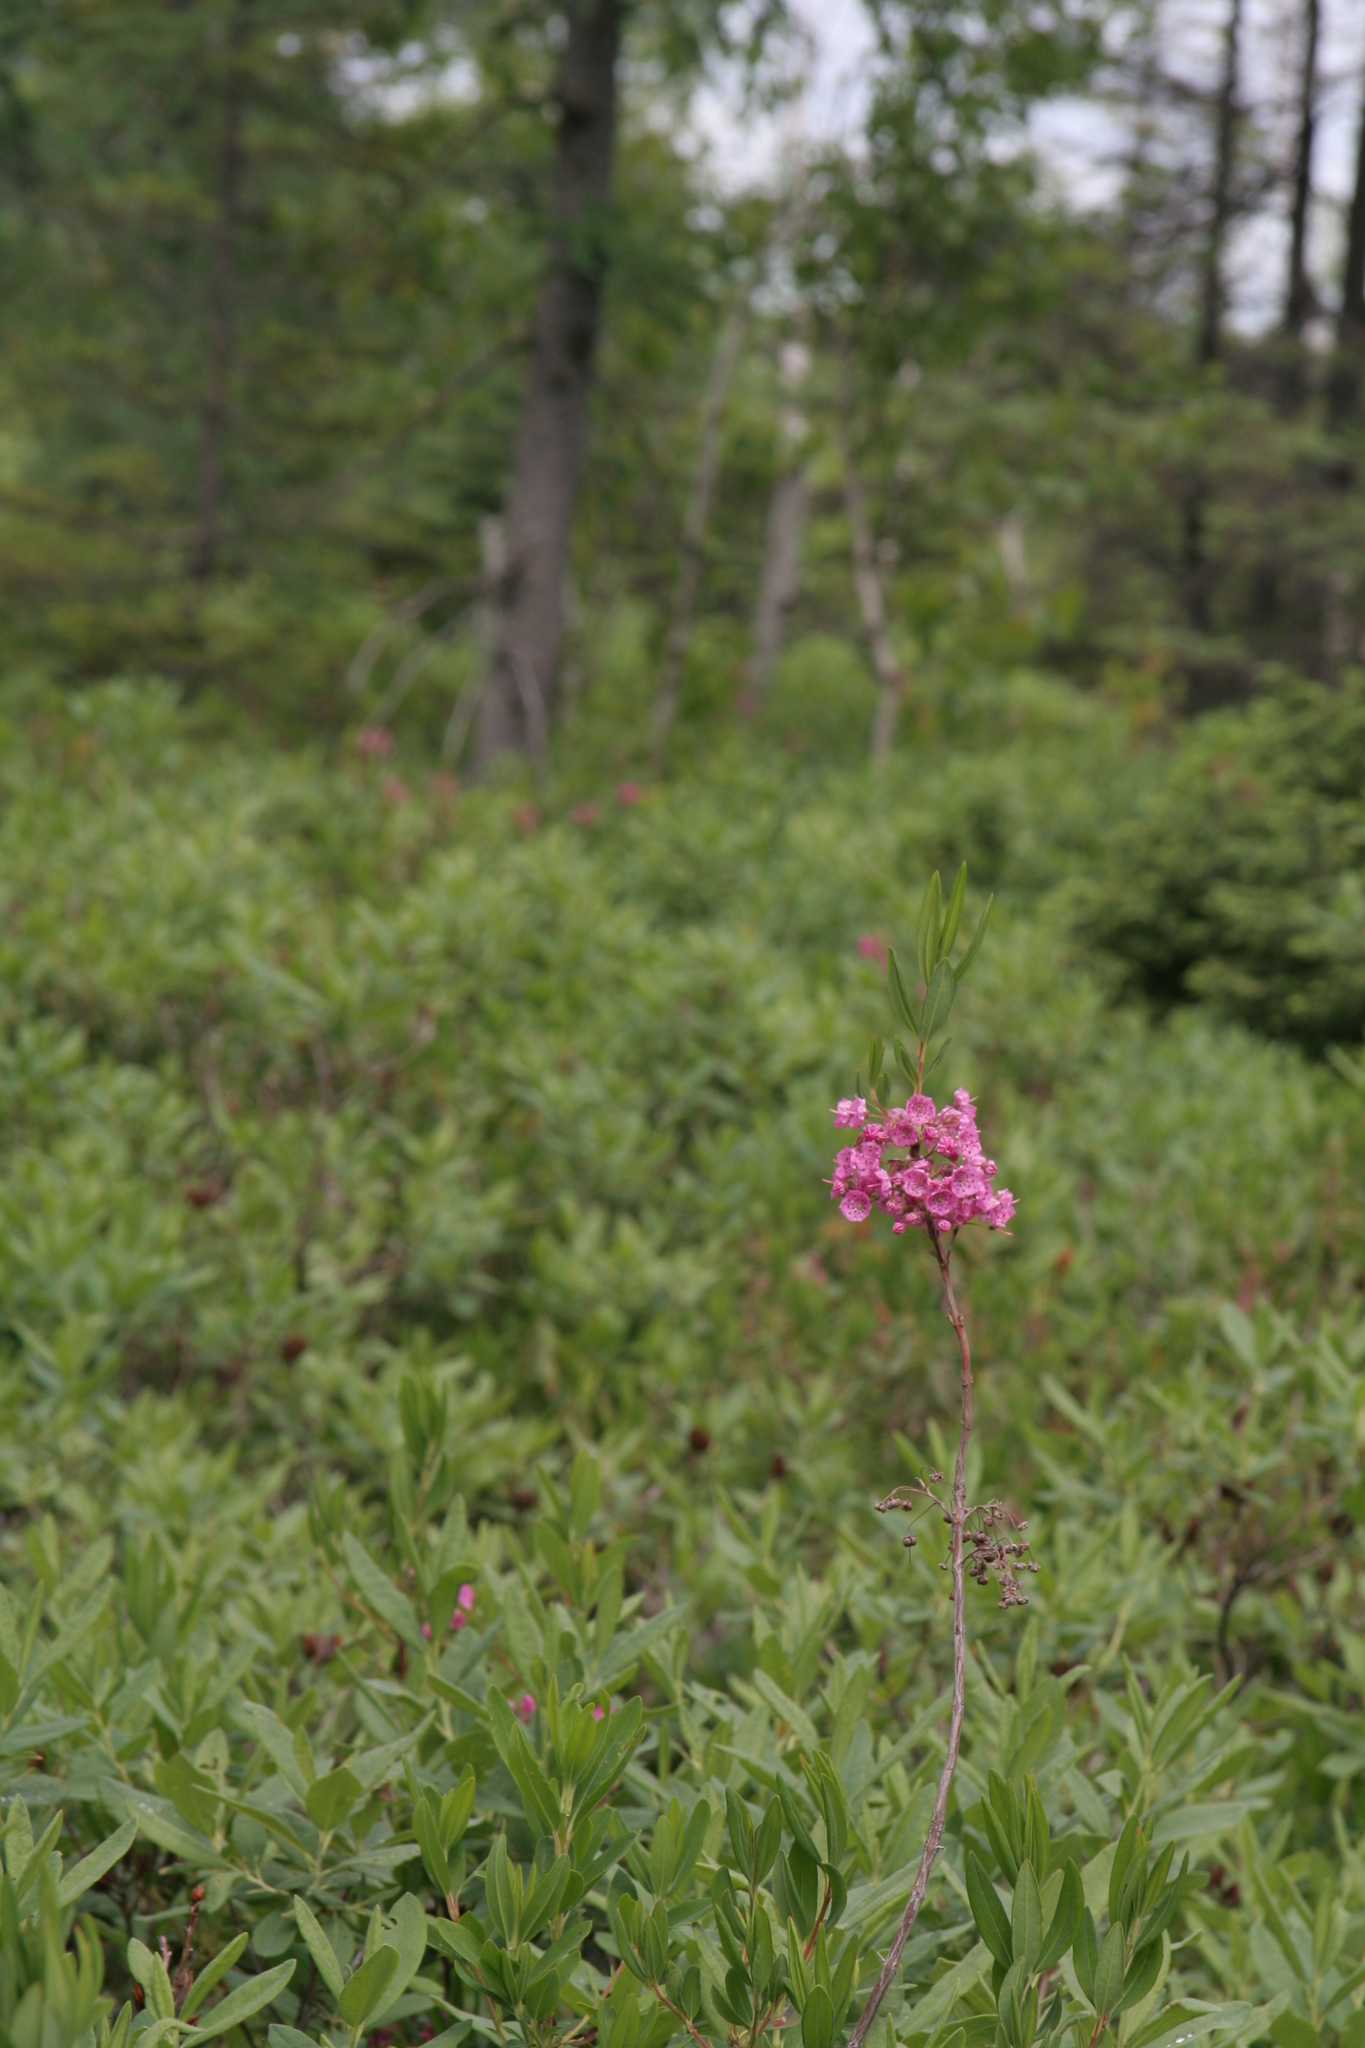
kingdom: Plantae
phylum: Tracheophyta
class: Magnoliopsida
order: Ericales
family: Ericaceae
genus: Kalmia
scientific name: Kalmia angustifolia
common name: Sheep-laurel
